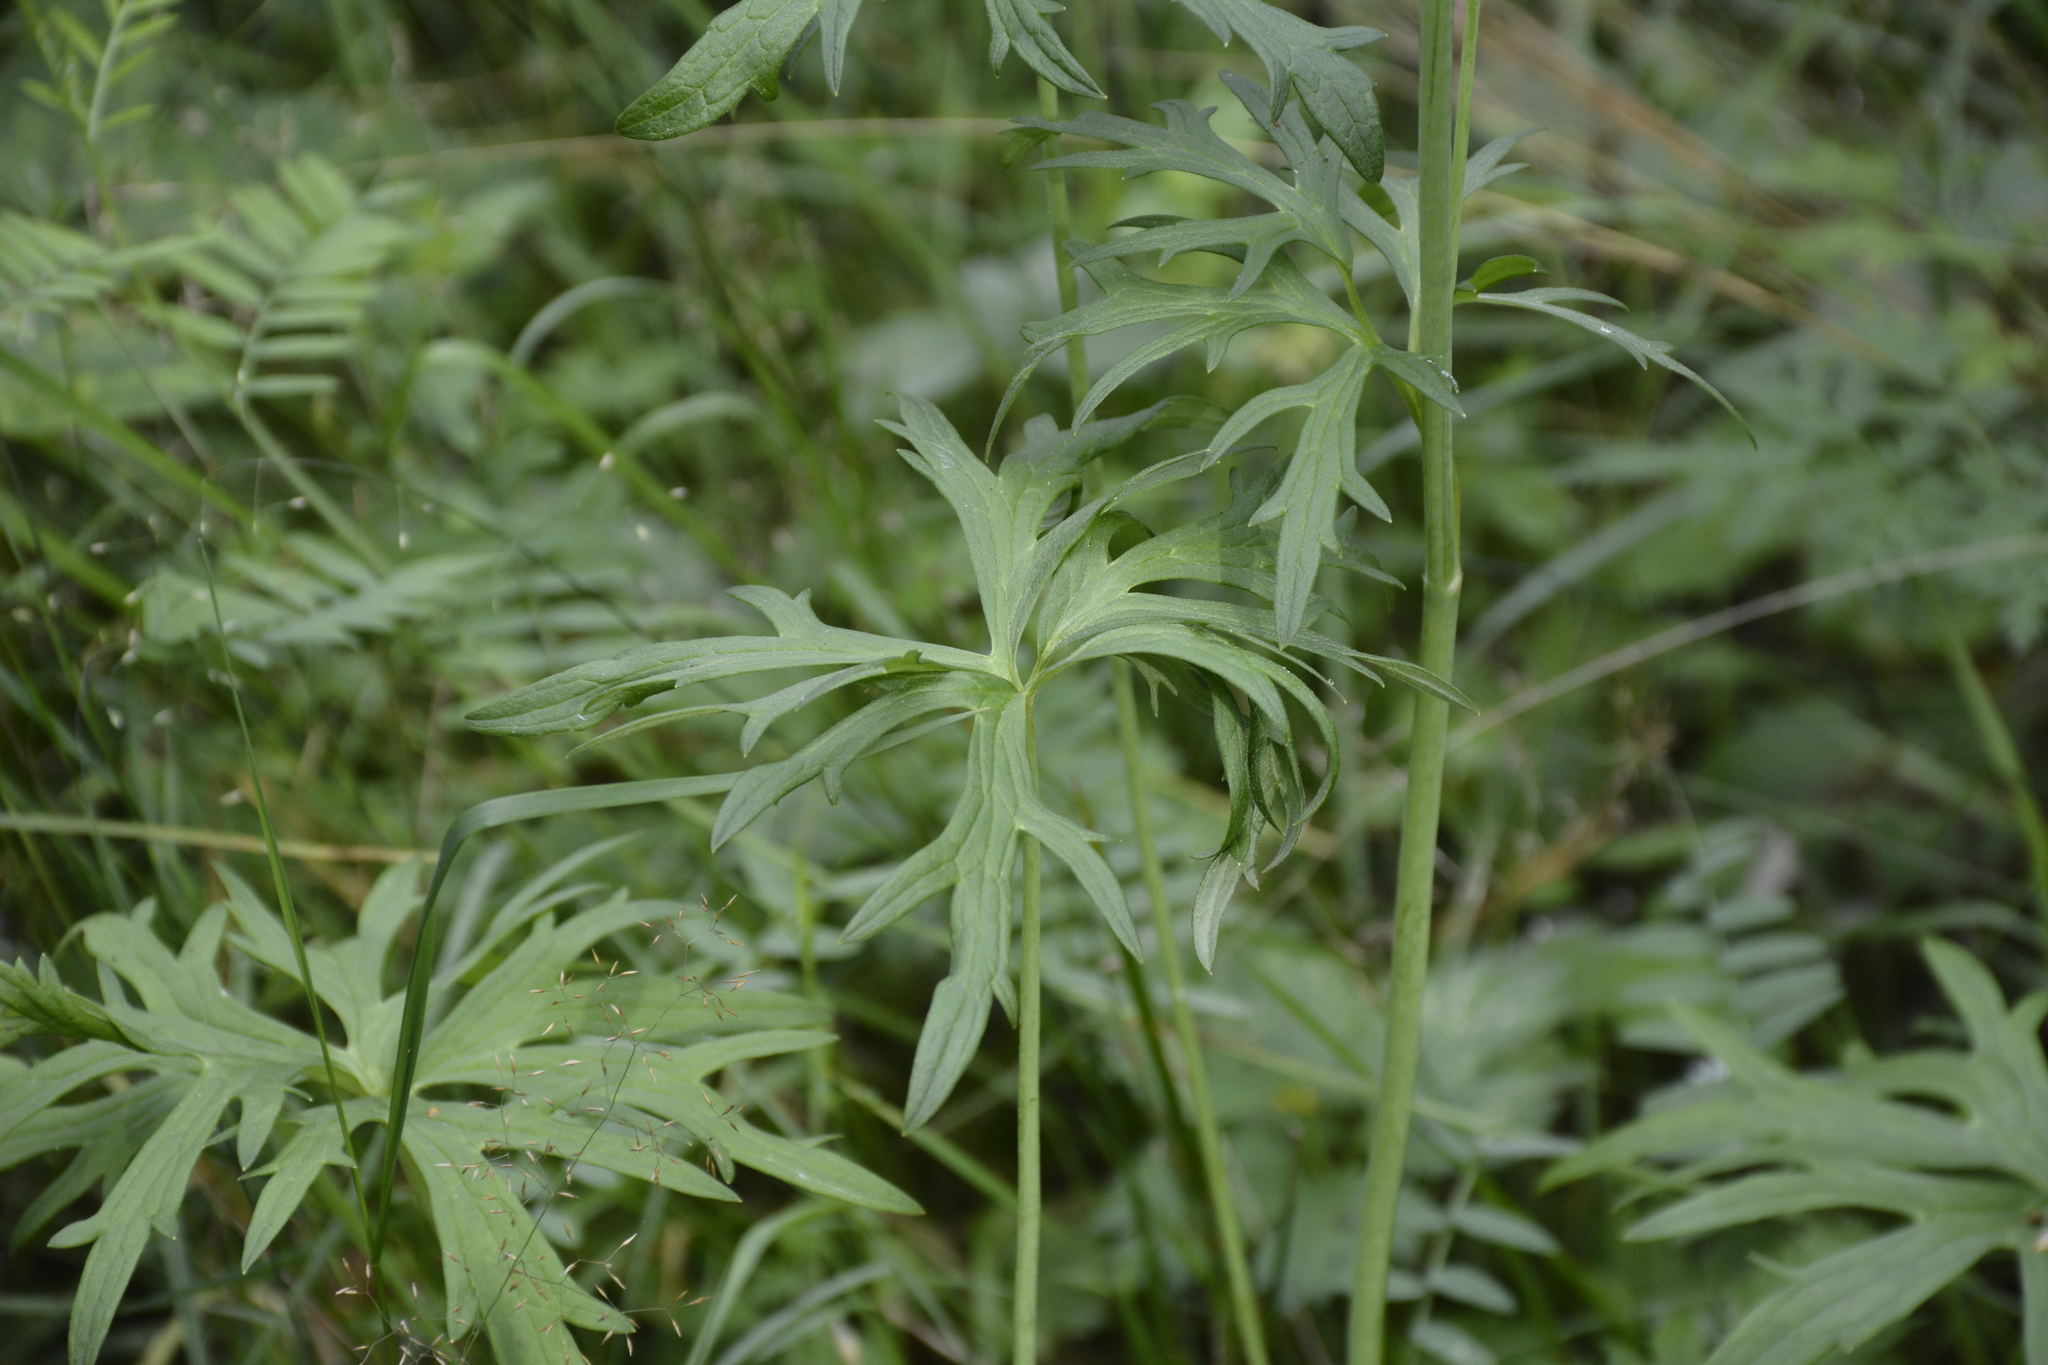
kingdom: Plantae
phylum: Tracheophyta
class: Magnoliopsida
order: Ranunculales
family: Ranunculaceae
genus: Ranunculus
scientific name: Ranunculus acris
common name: Meadow buttercup
